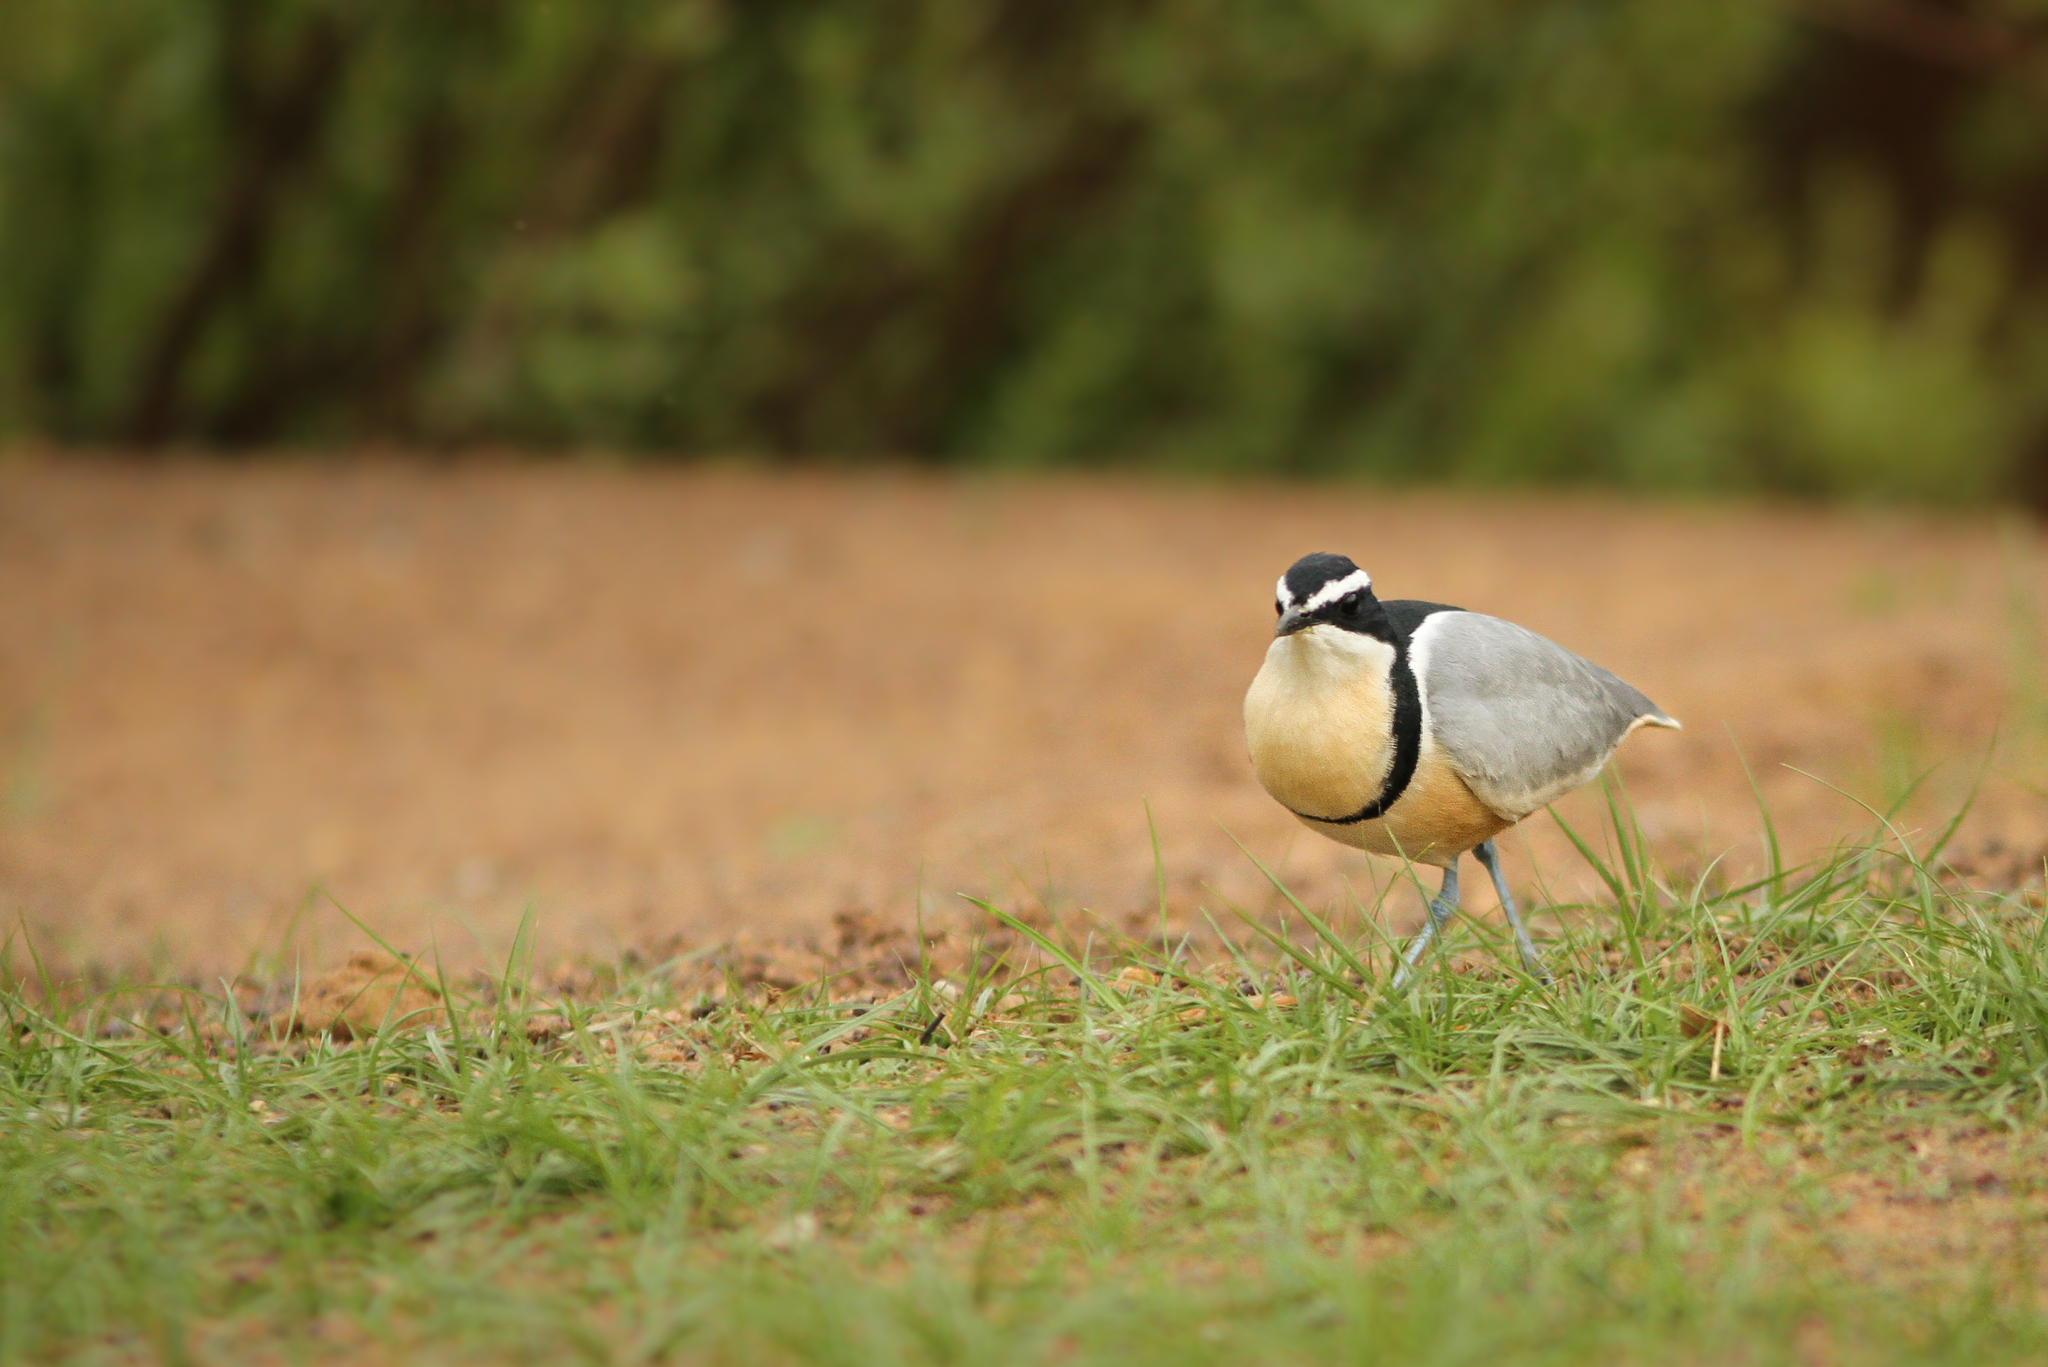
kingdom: Animalia
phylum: Chordata
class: Aves
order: Charadriiformes
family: Pluvianidae
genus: Pluvianus
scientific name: Pluvianus aegyptius
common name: Egyptian plover
